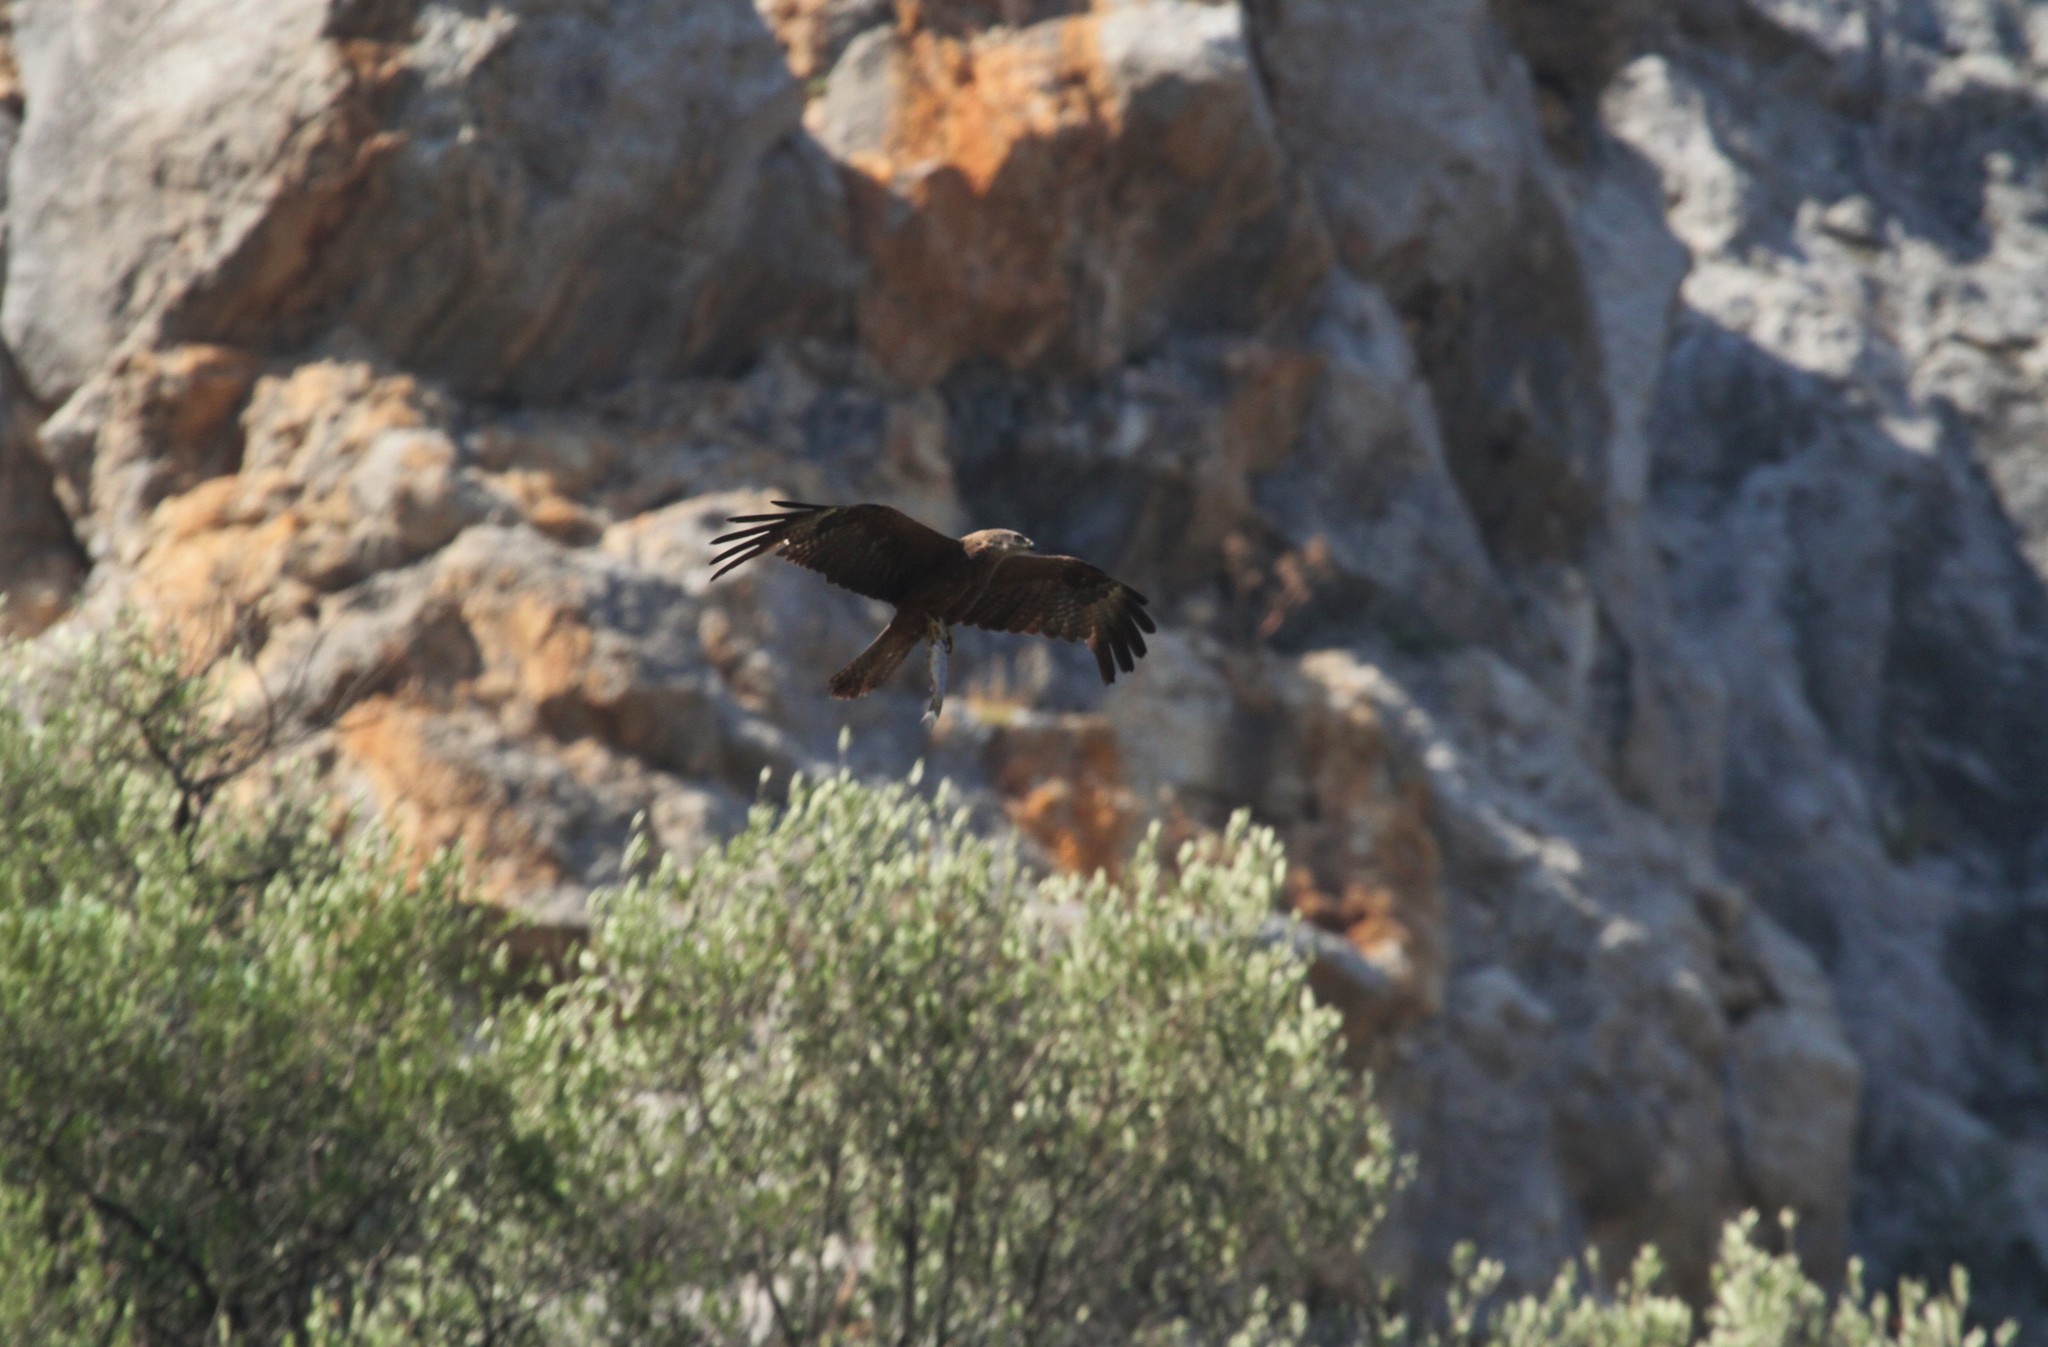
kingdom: Animalia
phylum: Chordata
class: Aves
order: Accipitriformes
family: Accipitridae
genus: Milvus
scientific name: Milvus migrans
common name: Black kite
